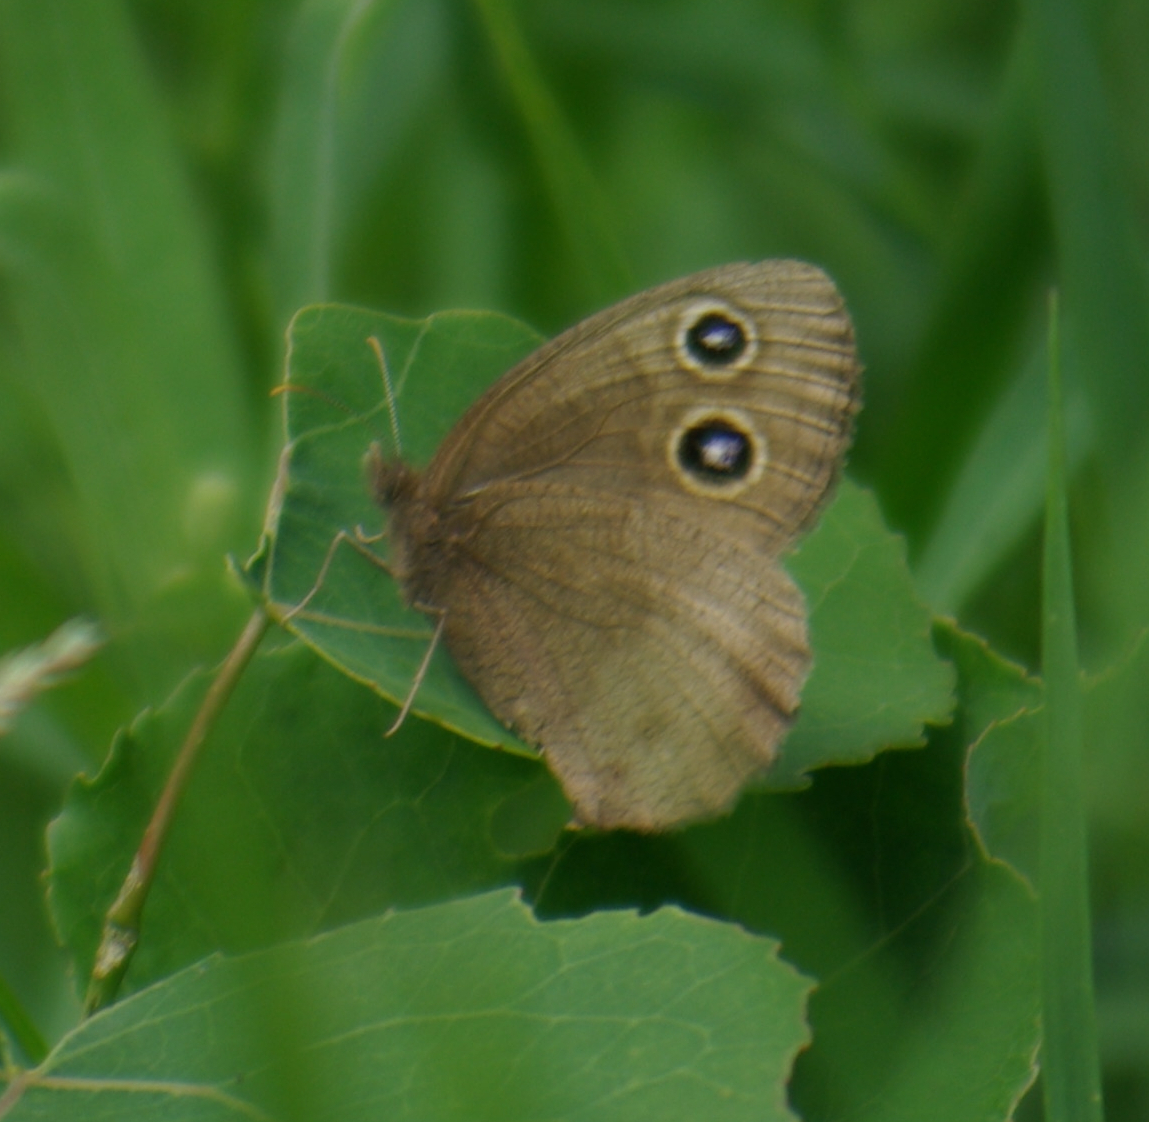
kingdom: Animalia
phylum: Arthropoda
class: Insecta
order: Lepidoptera
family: Nymphalidae
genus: Cercyonis
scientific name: Cercyonis pegala
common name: Common wood-nymph
